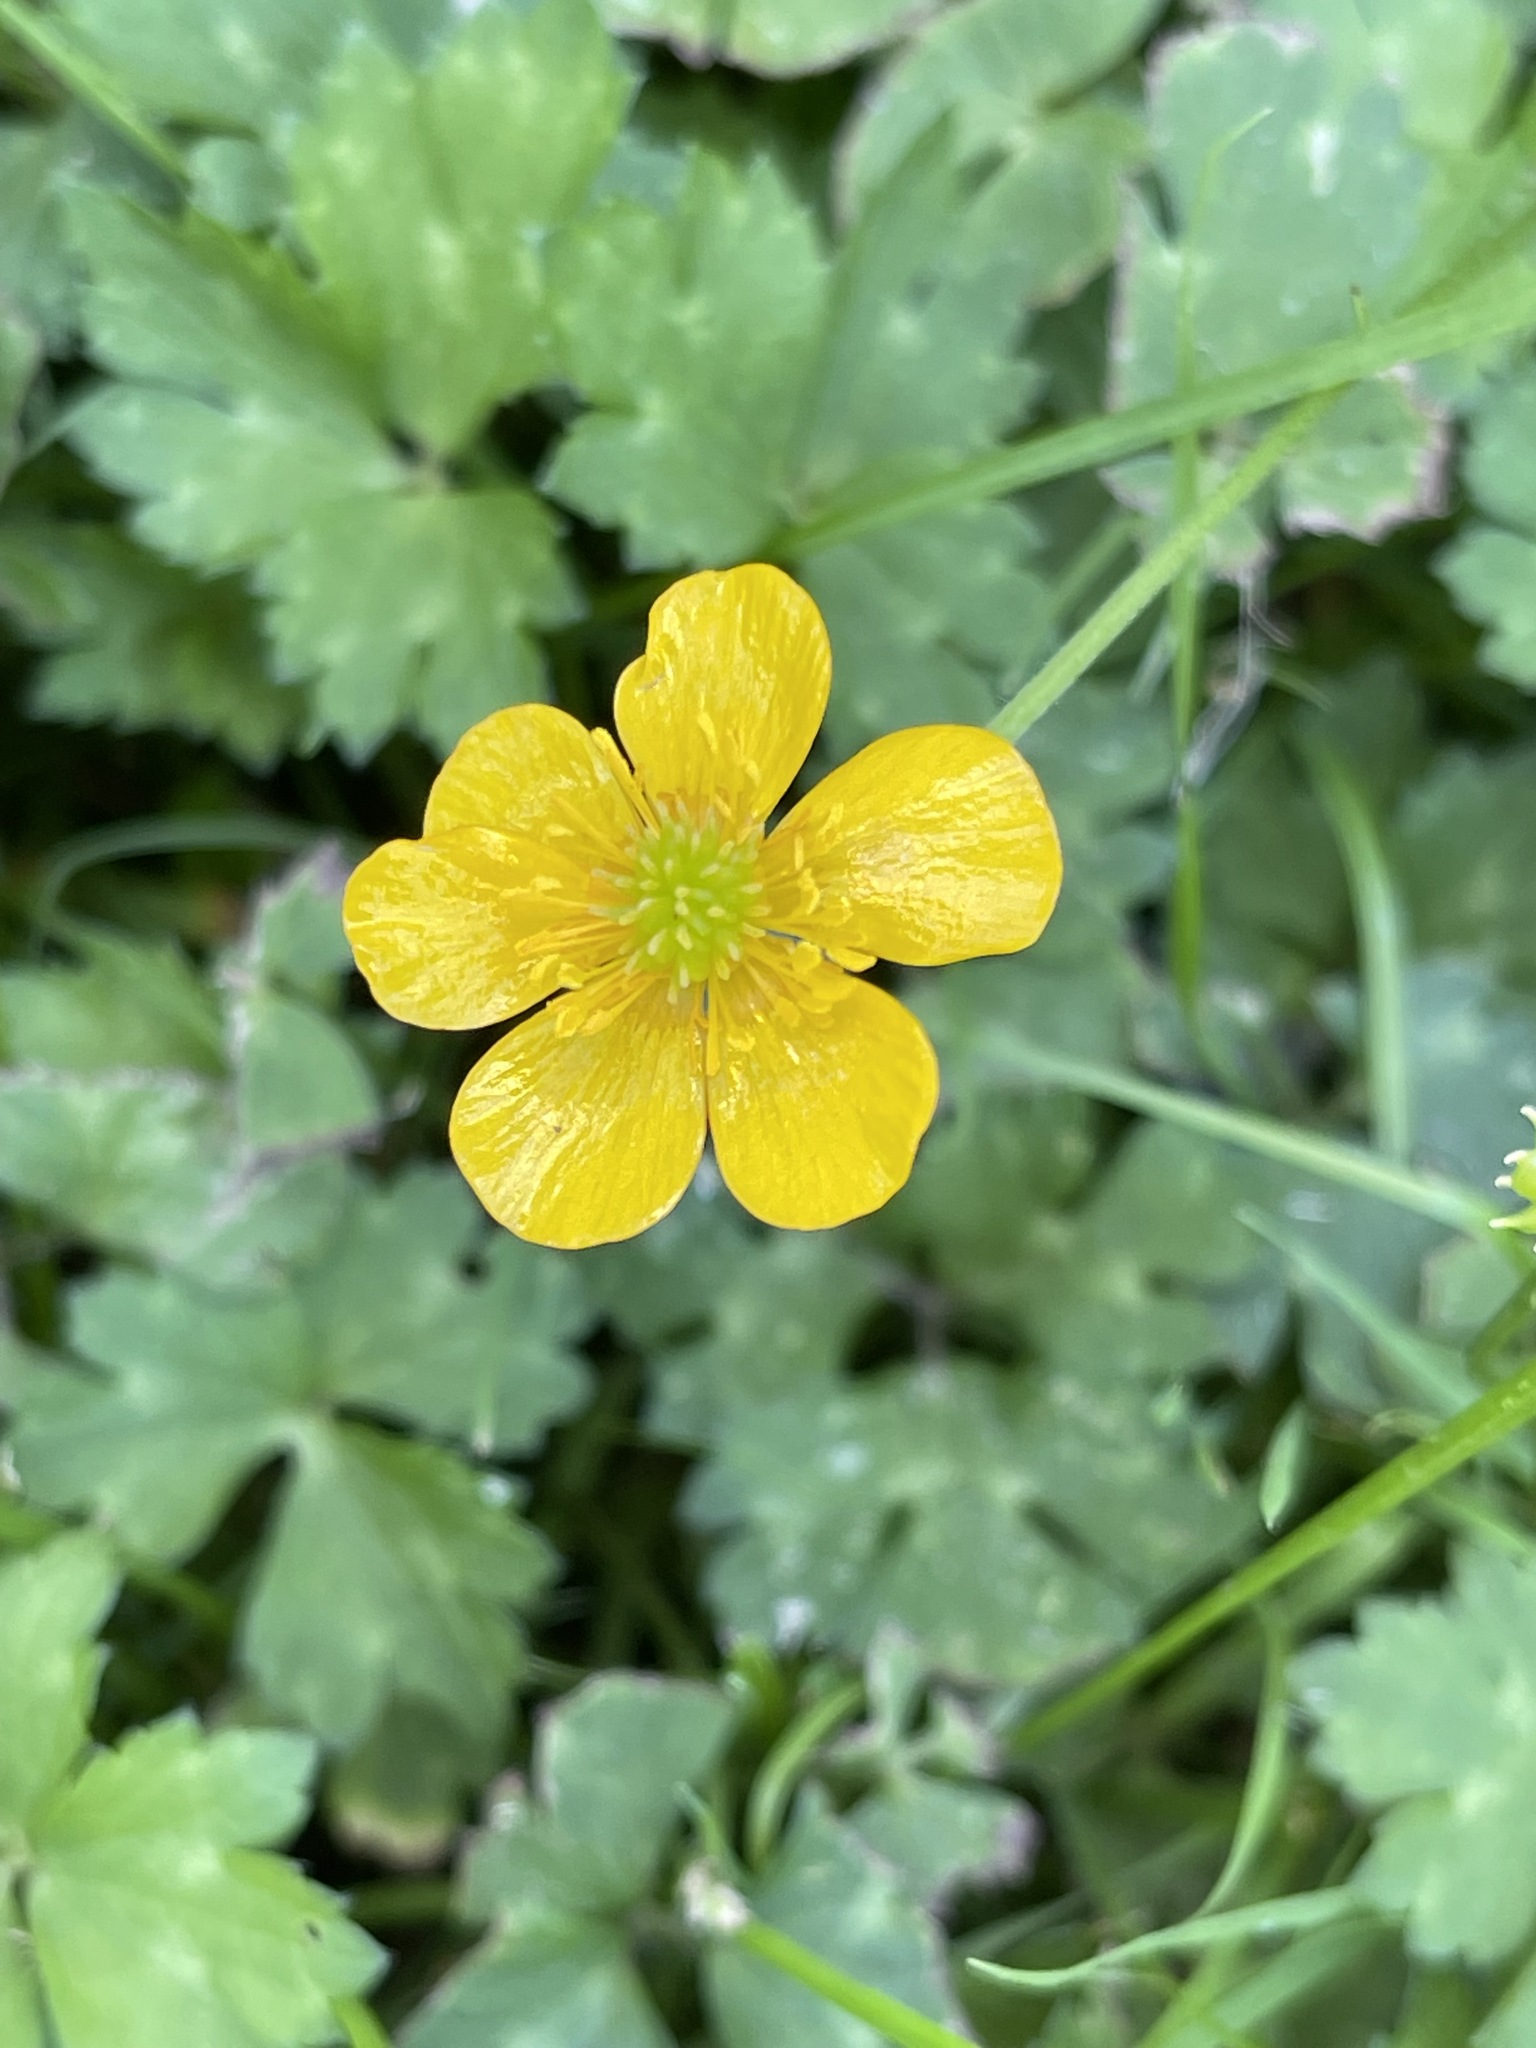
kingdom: Plantae
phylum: Tracheophyta
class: Magnoliopsida
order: Ranunculales
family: Ranunculaceae
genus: Ranunculus
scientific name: Ranunculus repens
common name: Creeping buttercup
